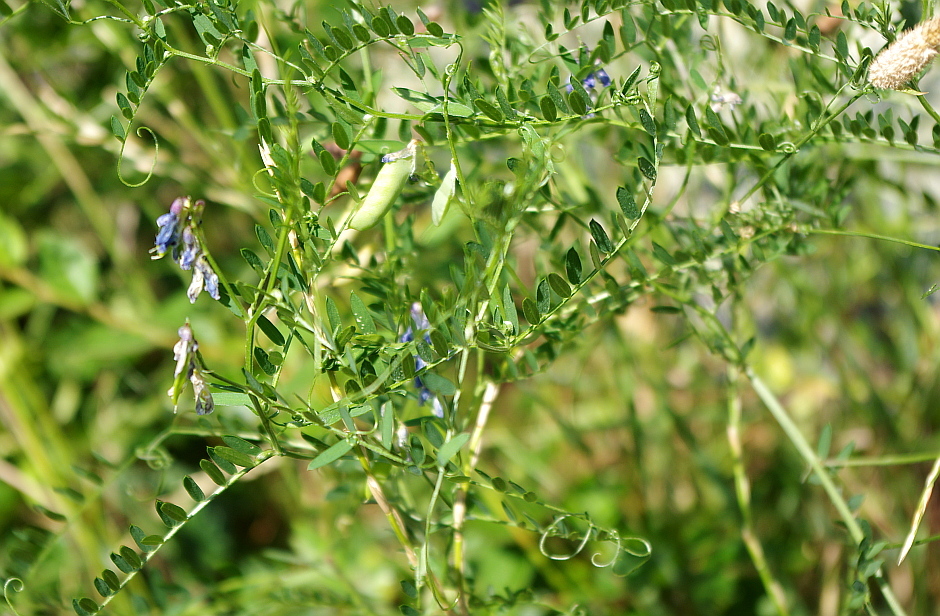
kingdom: Plantae
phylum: Tracheophyta
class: Magnoliopsida
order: Fabales
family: Fabaceae
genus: Vicia
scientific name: Vicia cracca
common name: Bird vetch
